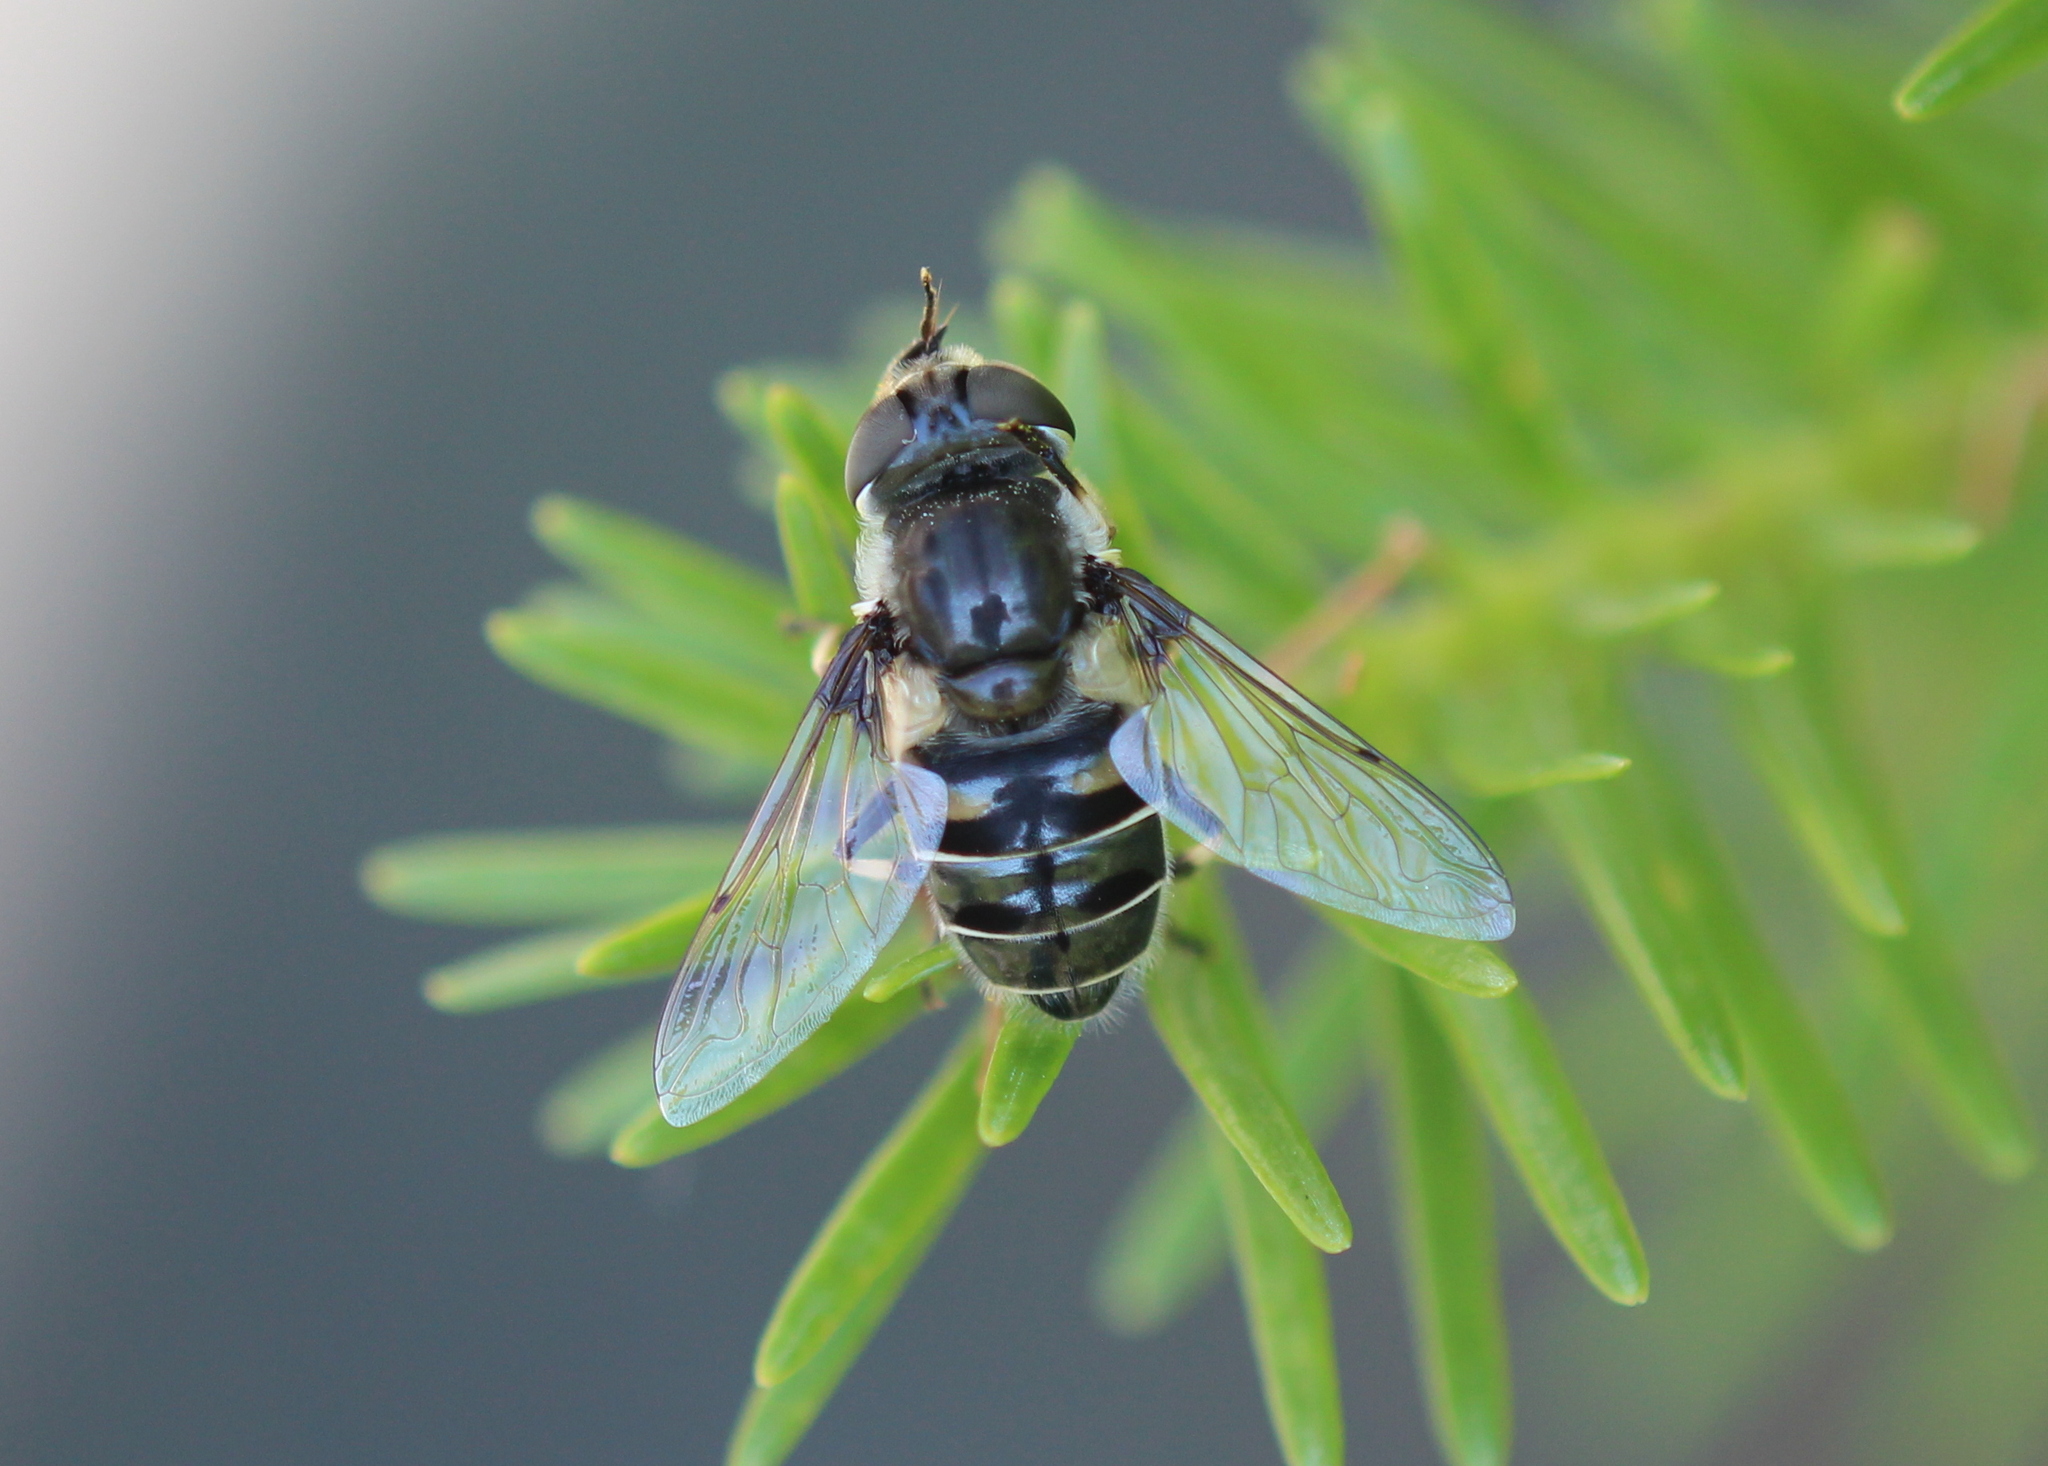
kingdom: Animalia
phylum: Arthropoda
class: Insecta
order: Diptera
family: Syrphidae
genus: Eristalis
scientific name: Eristalis dimidiata
